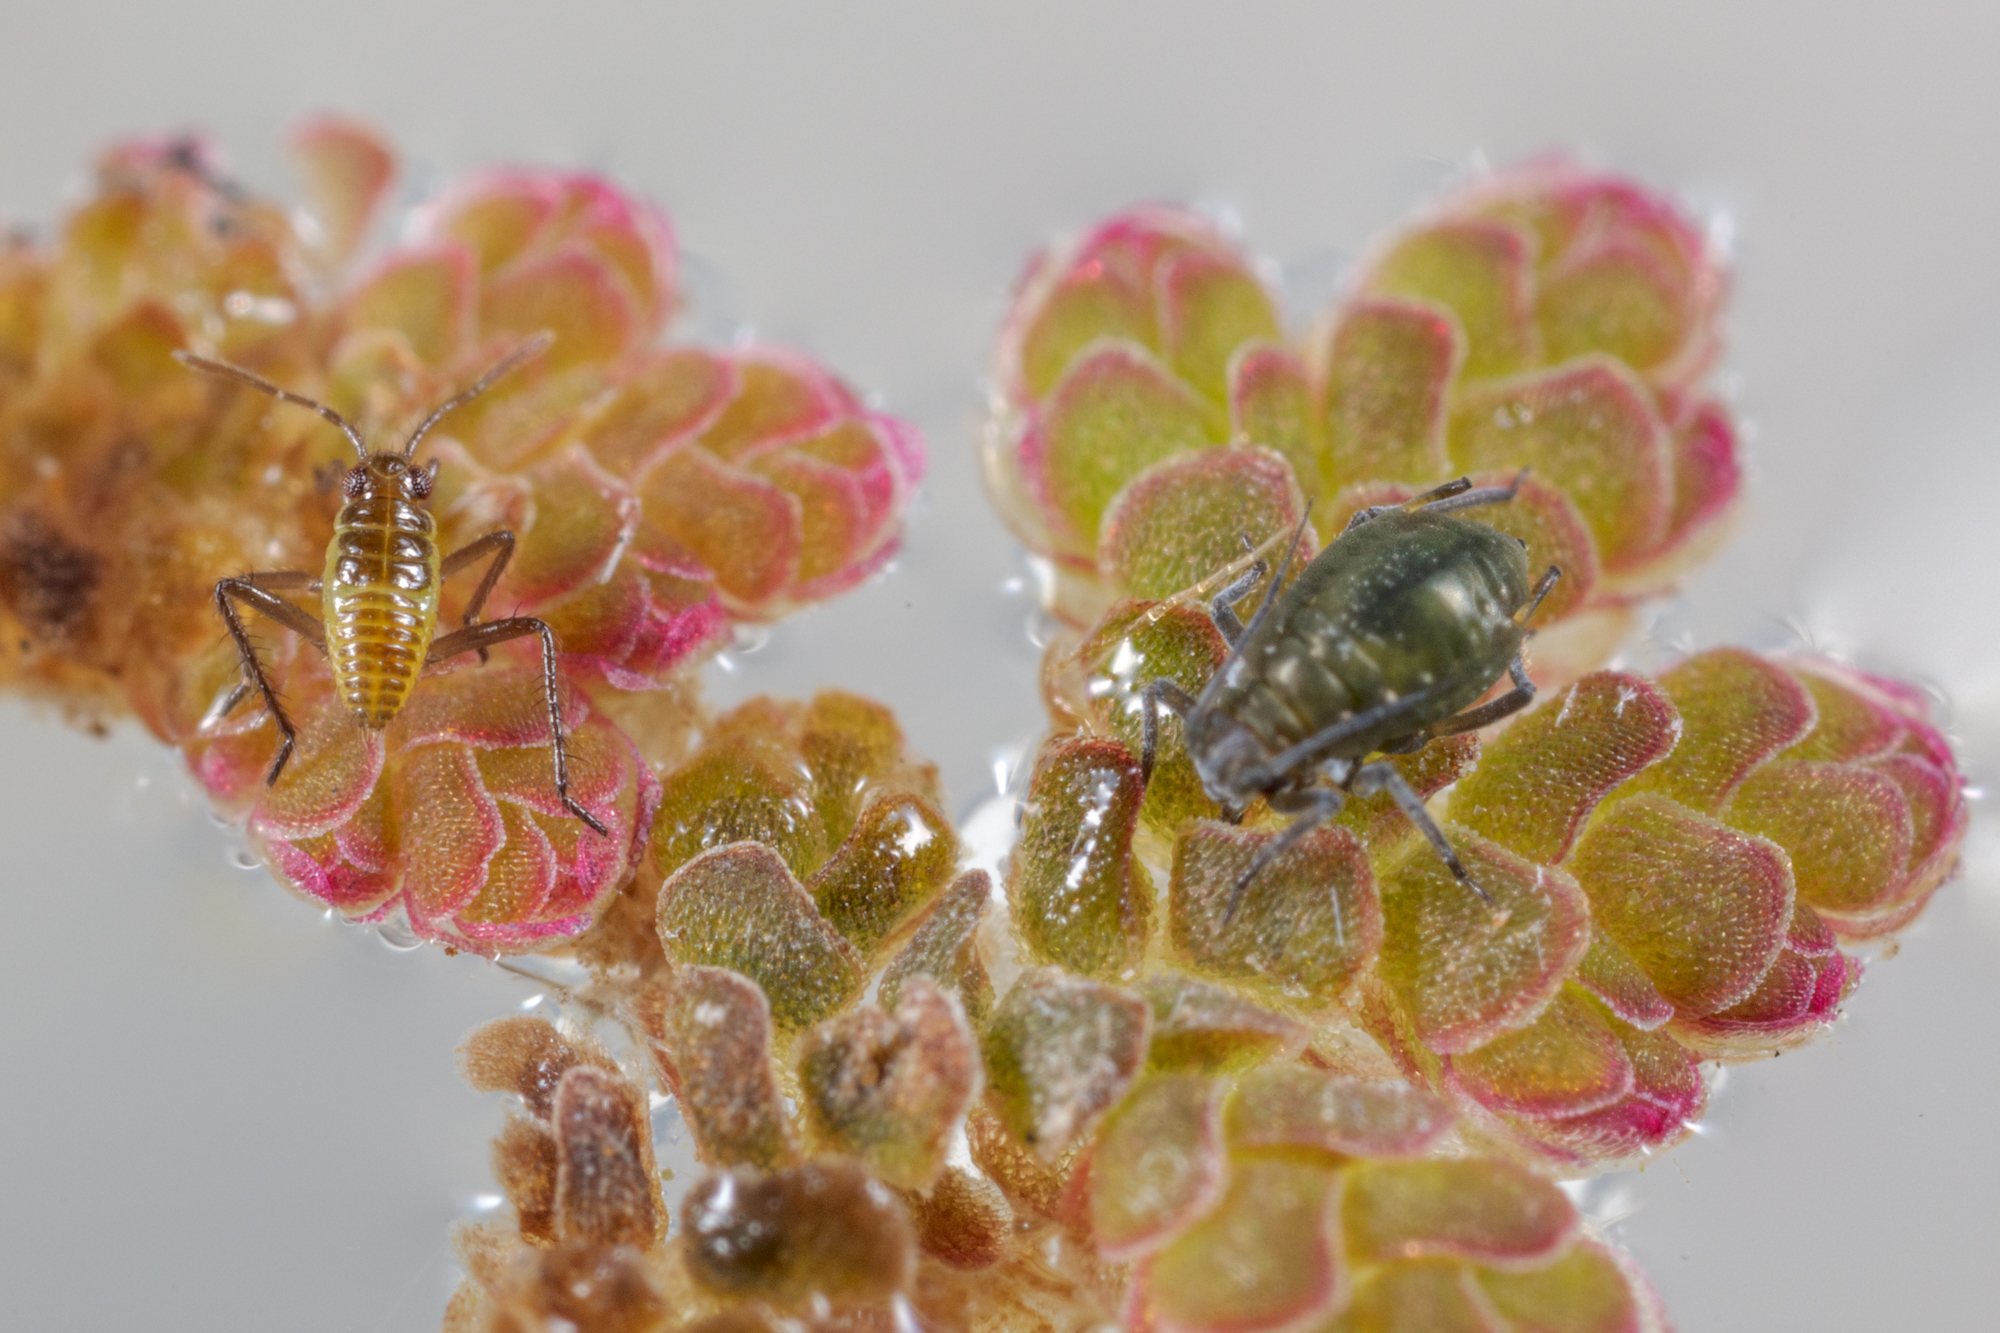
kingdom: Animalia
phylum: Arthropoda
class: Insecta
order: Hemiptera
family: Mesoveliidae
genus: Mesovelia
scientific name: Mesovelia
